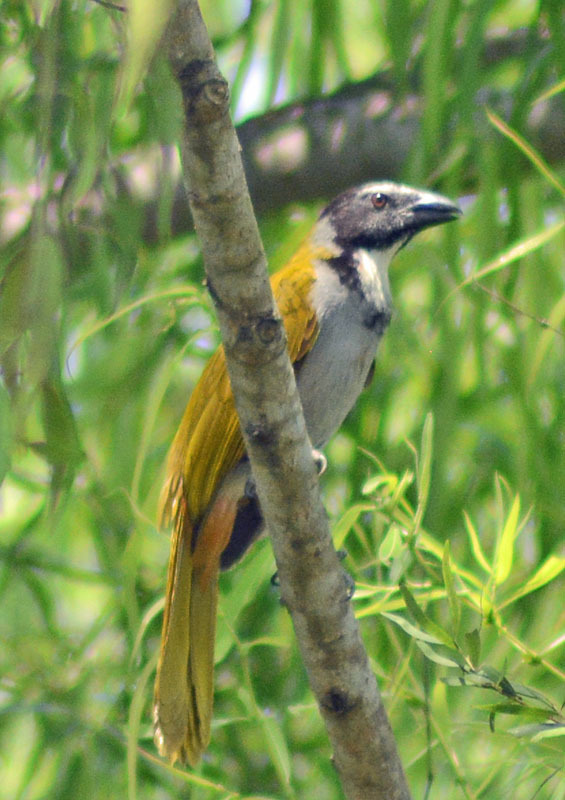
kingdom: Animalia
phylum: Chordata
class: Aves
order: Passeriformes
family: Thraupidae
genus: Saltator
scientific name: Saltator atriceps
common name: Black-headed saltator
